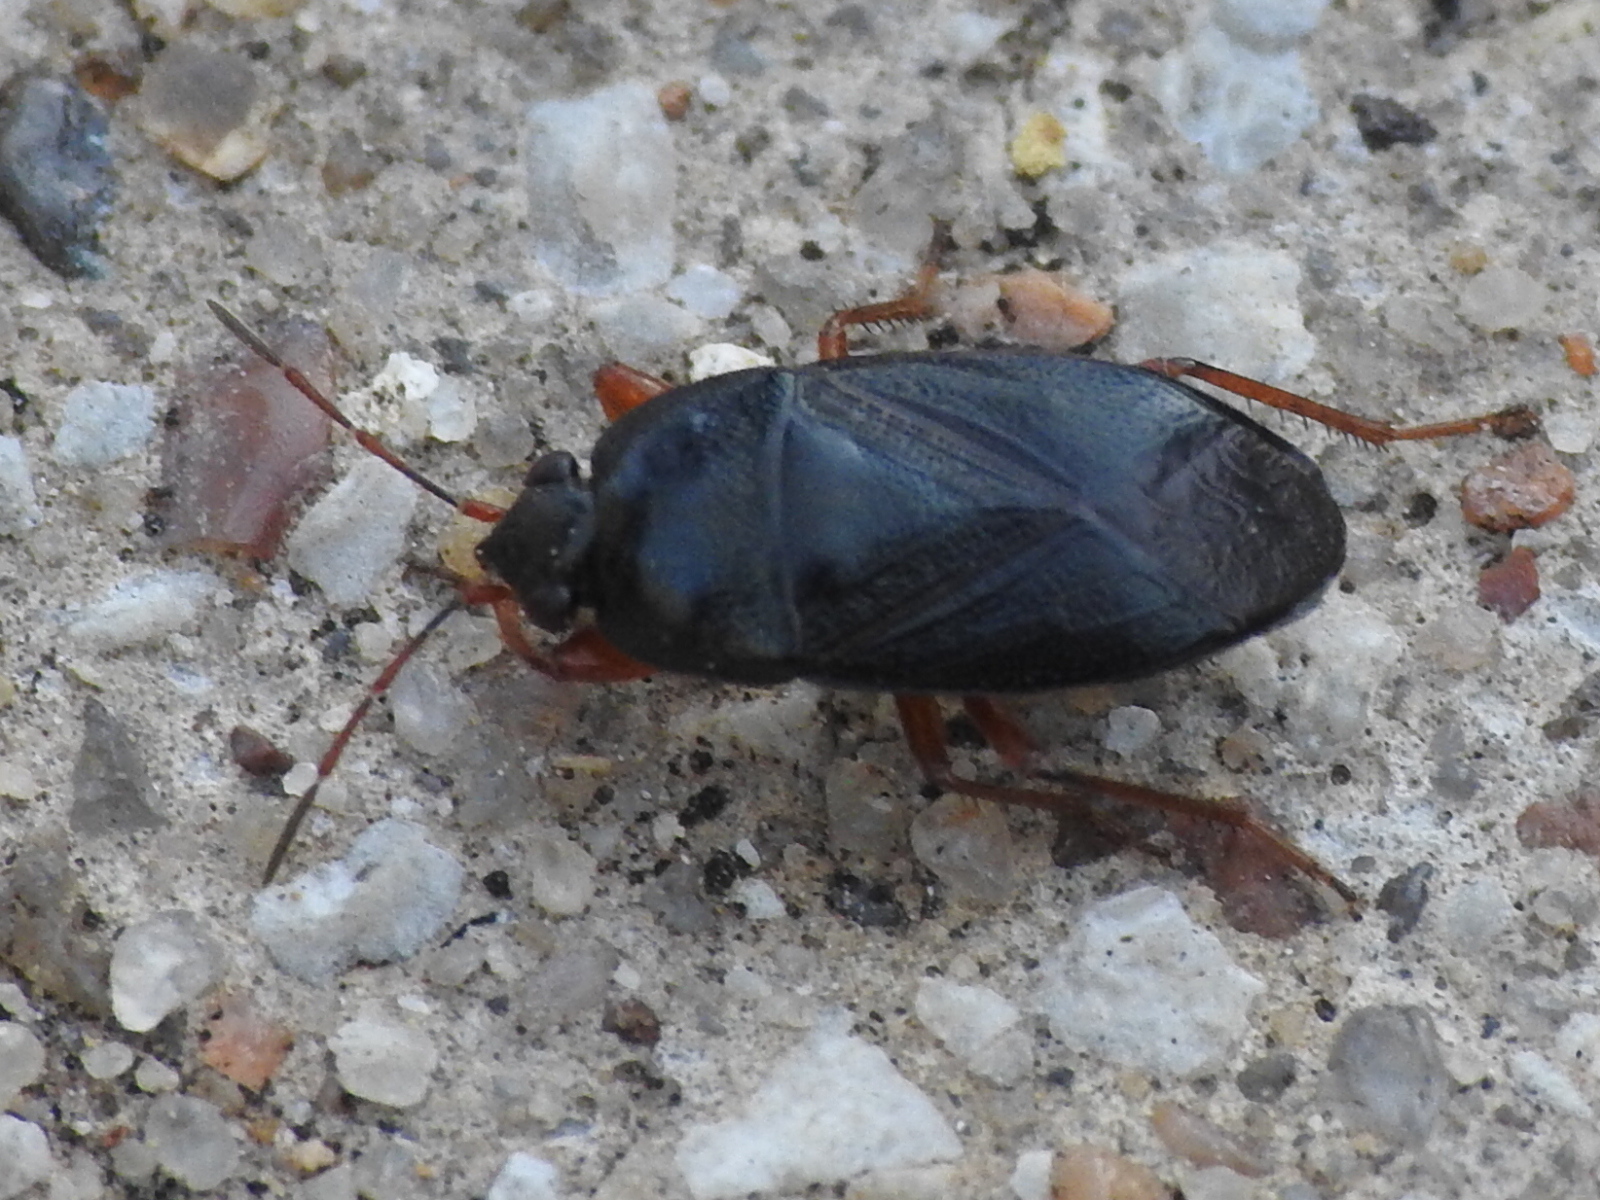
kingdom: Animalia
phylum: Arthropoda
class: Insecta
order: Hemiptera
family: Rhyparochromidae
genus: Delochilocoris
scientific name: Delochilocoris illuminatus
